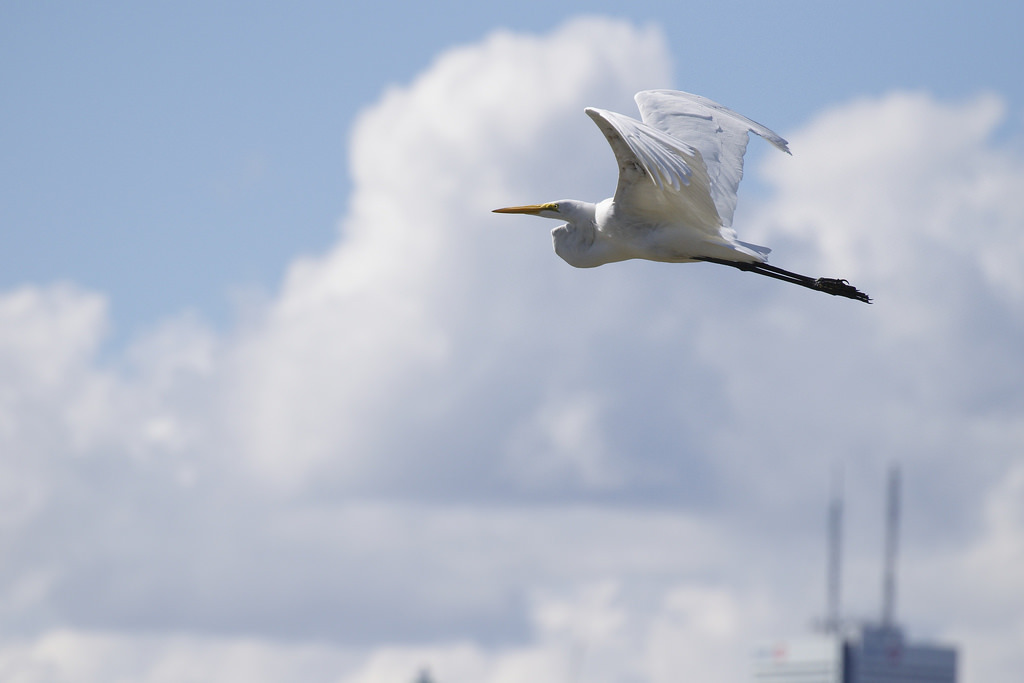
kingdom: Animalia
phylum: Chordata
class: Aves
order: Pelecaniformes
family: Ardeidae
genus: Ardea
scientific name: Ardea alba
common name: Great egret
